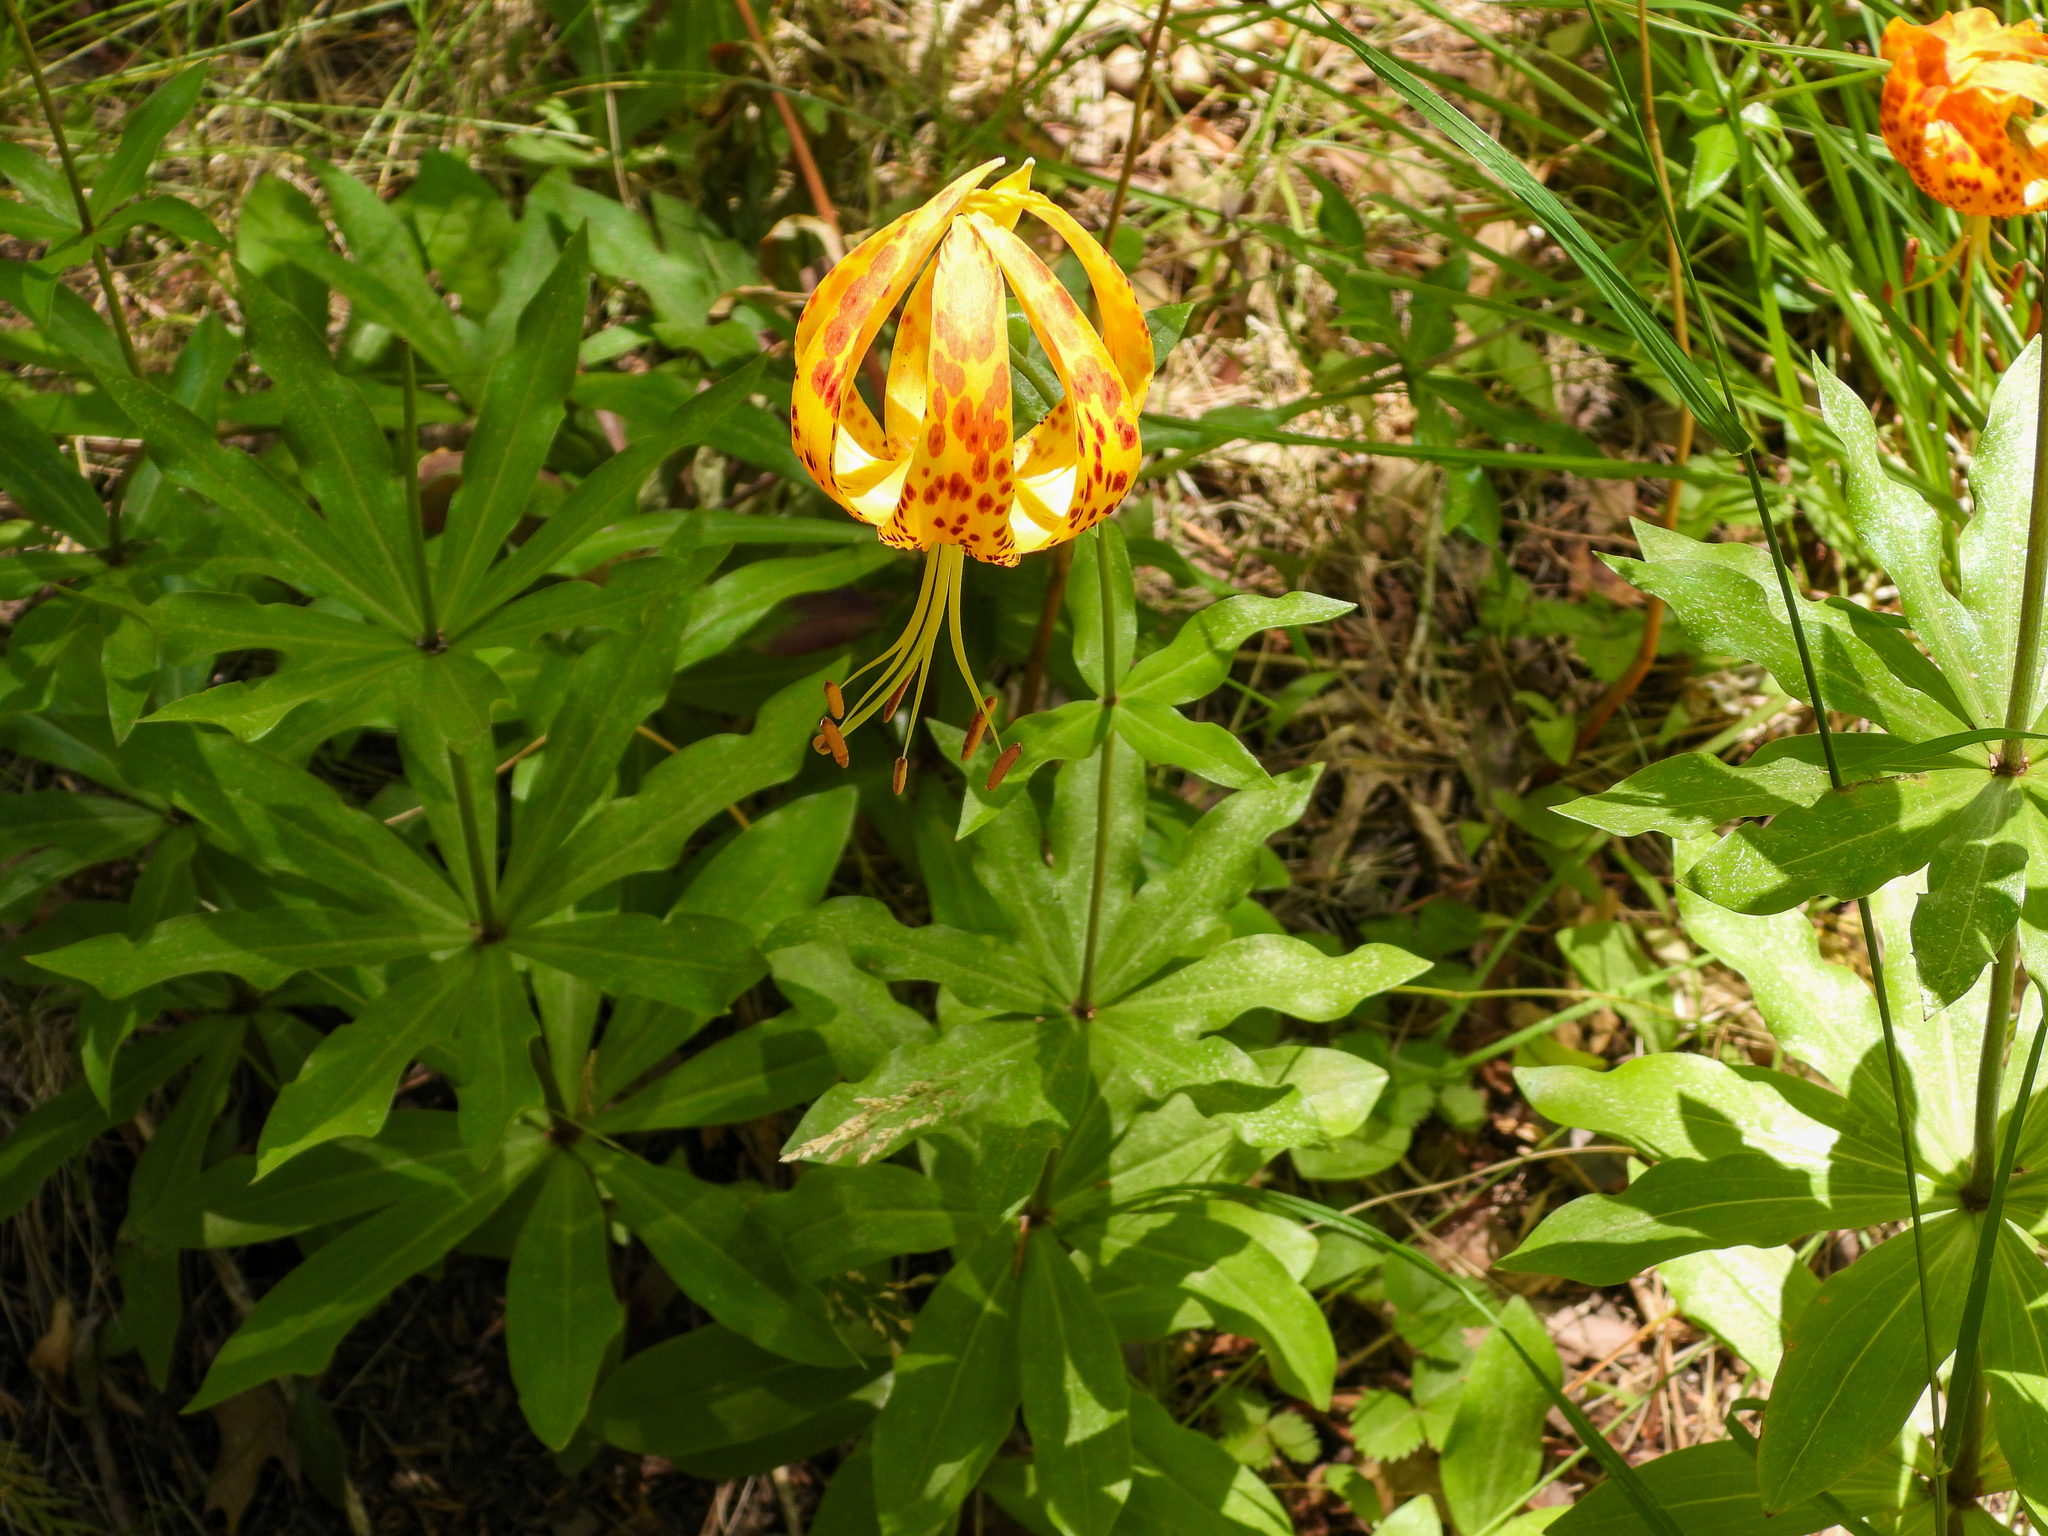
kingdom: Plantae
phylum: Tracheophyta
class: Liliopsida
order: Liliales
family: Liliaceae
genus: Lilium
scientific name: Lilium humboldtii
